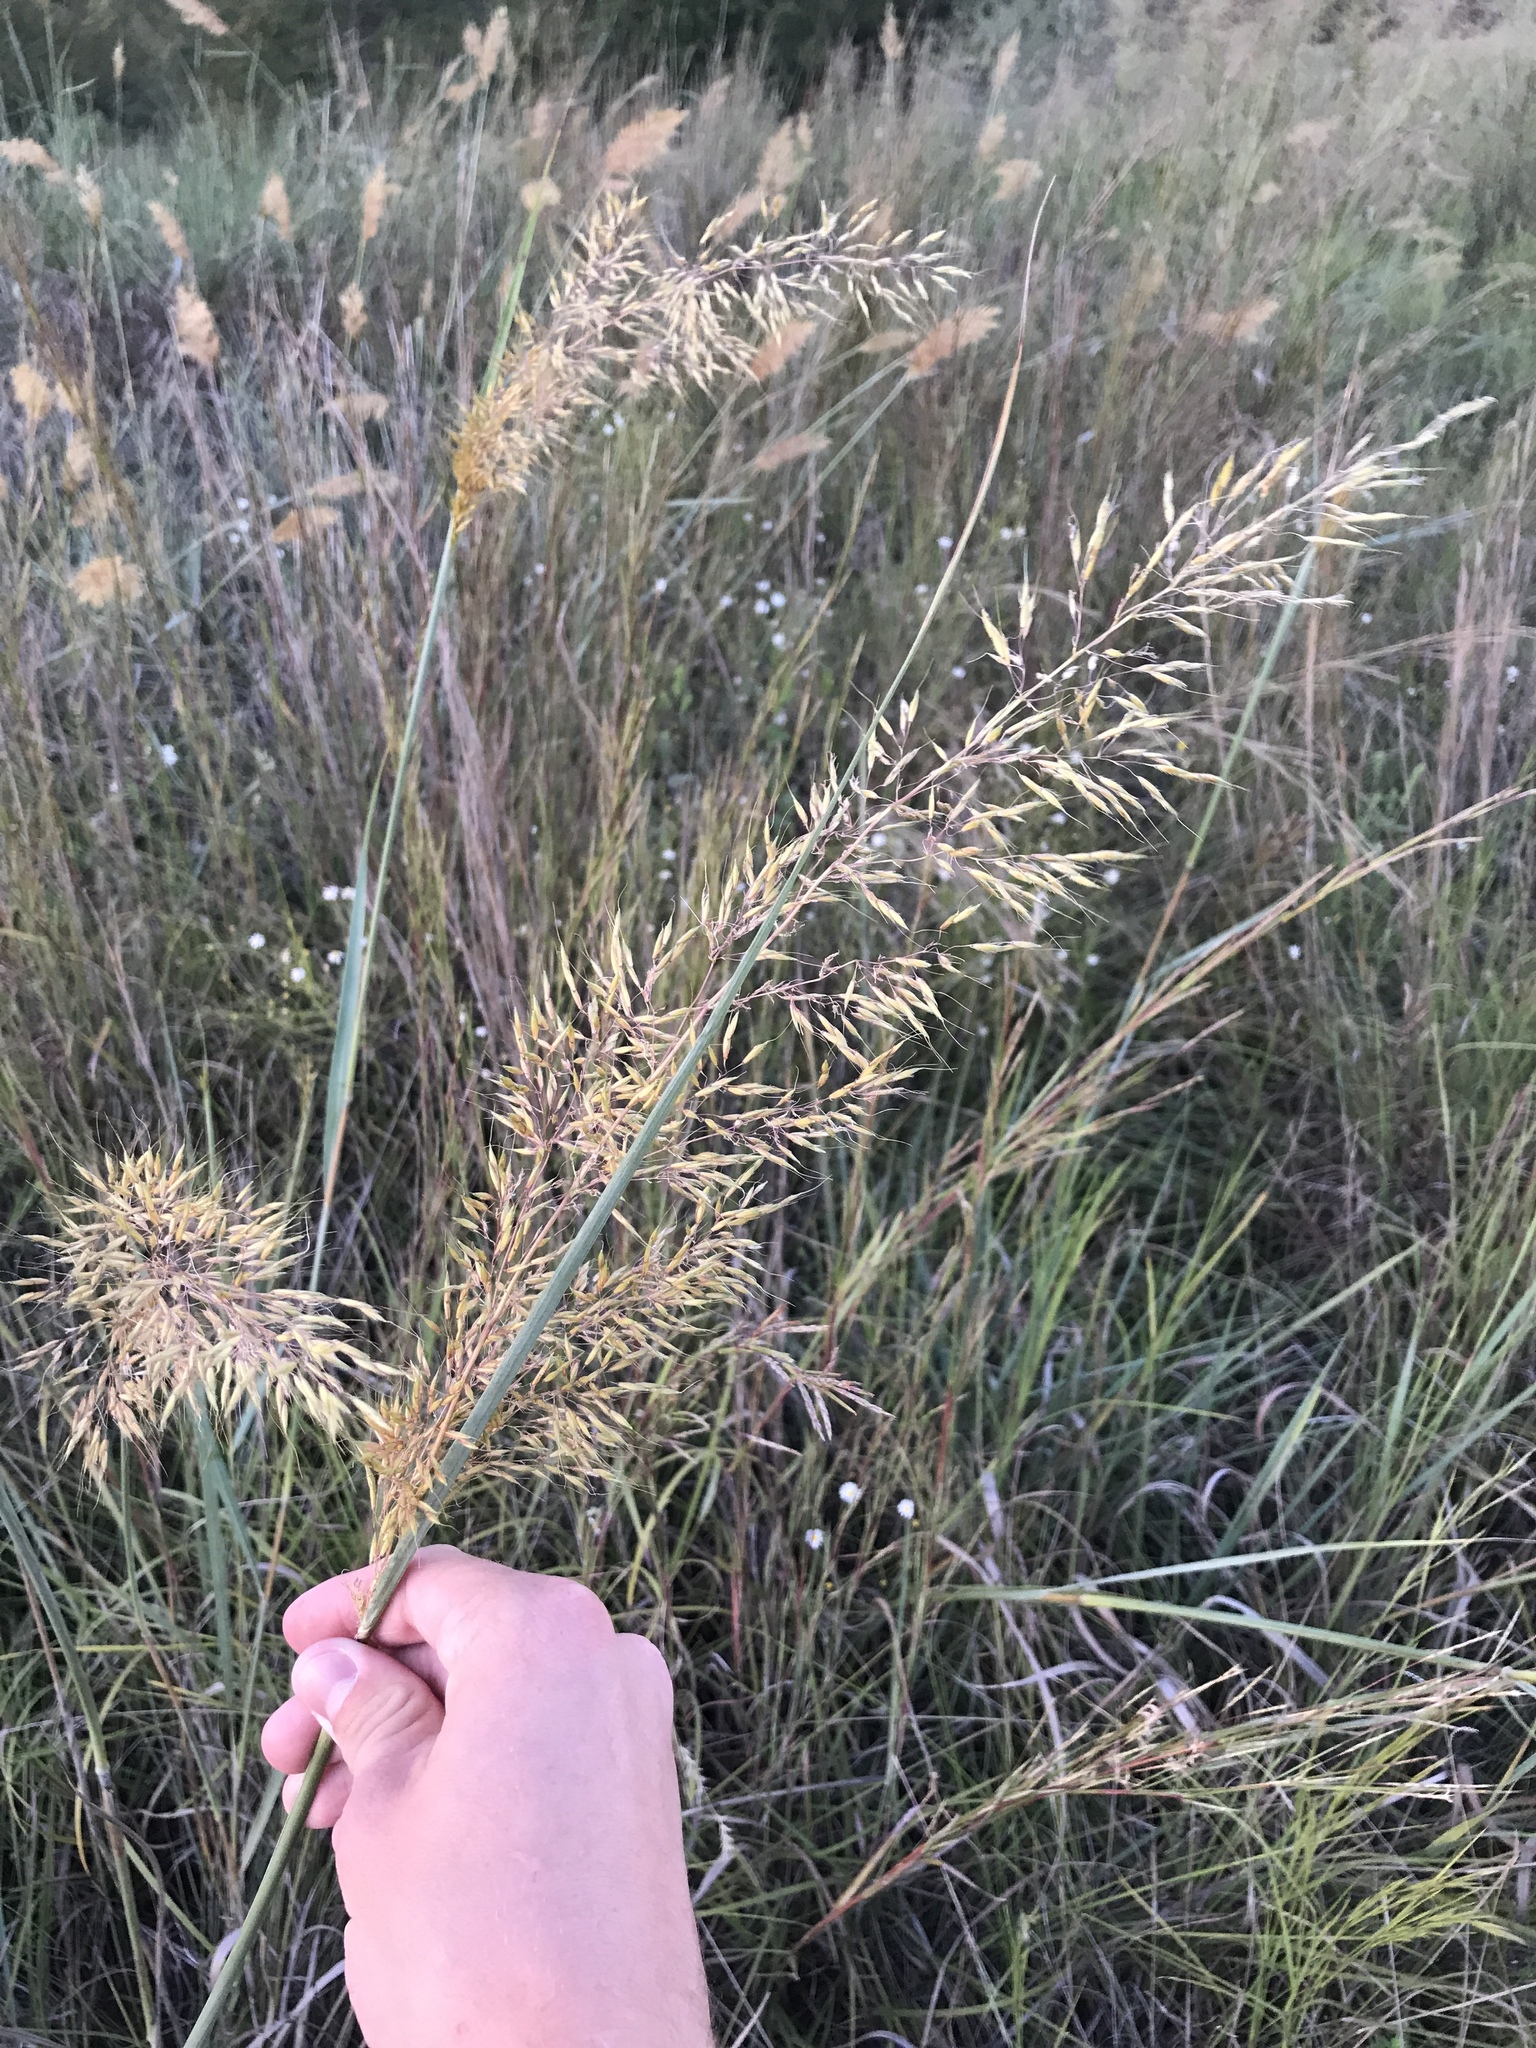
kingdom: Plantae
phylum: Tracheophyta
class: Liliopsida
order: Poales
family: Poaceae
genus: Sorghastrum
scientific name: Sorghastrum nutans
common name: Indian grass
